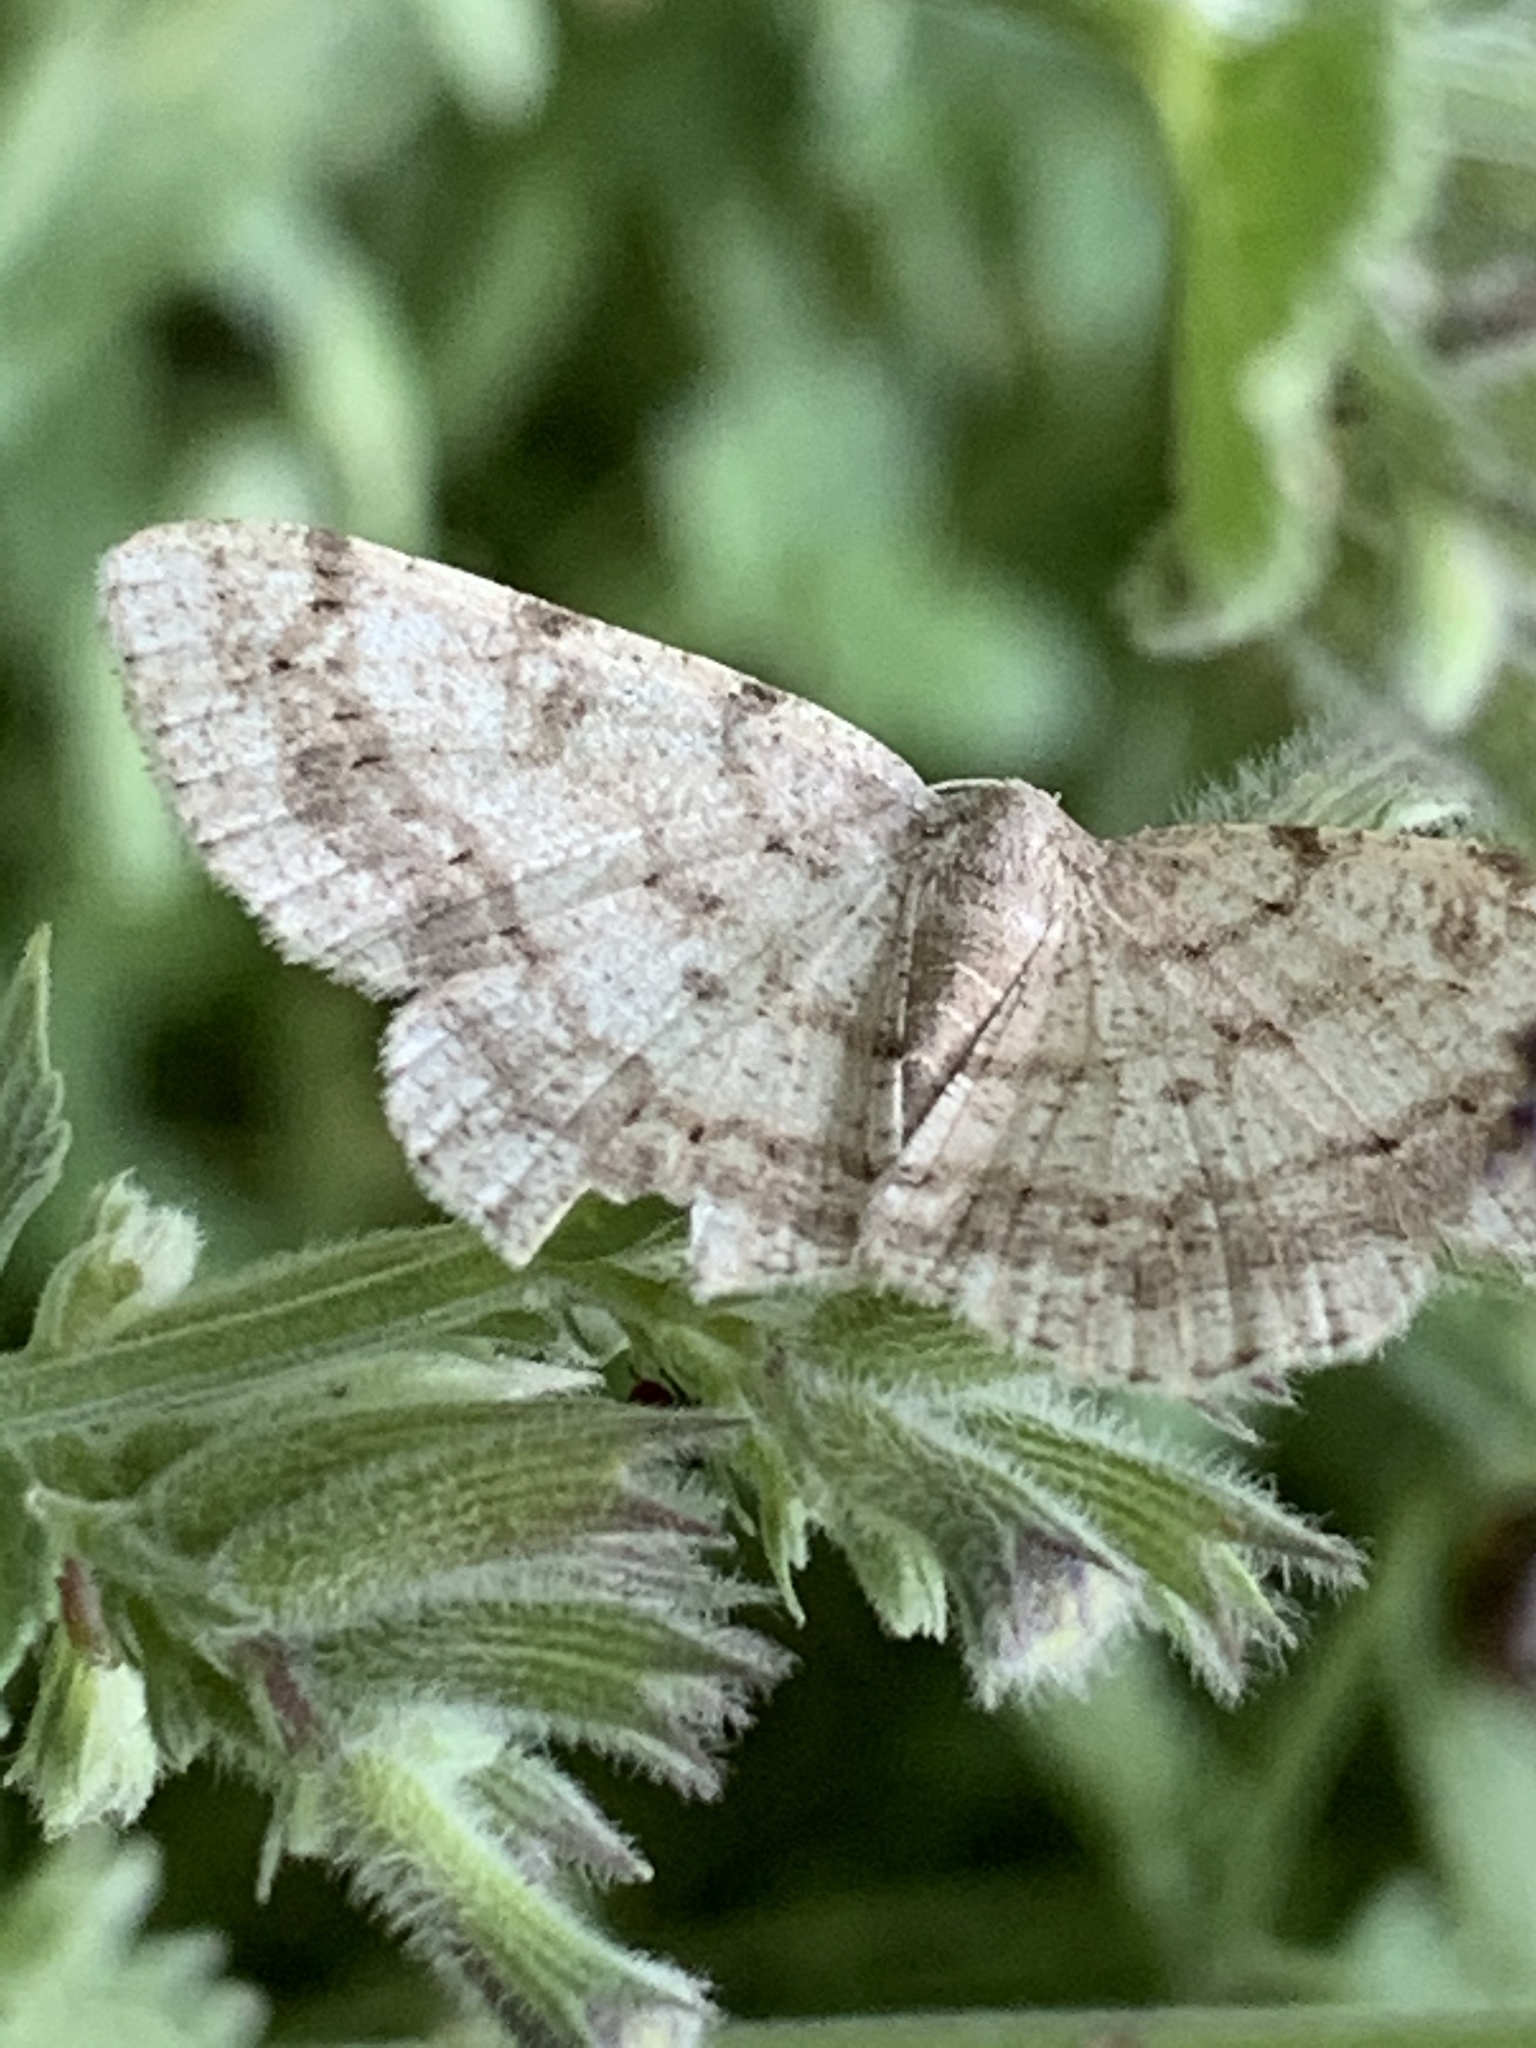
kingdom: Animalia
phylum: Arthropoda
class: Insecta
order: Lepidoptera
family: Geometridae
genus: Digrammia
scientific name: Digrammia ocellinata
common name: Faint-spotted angle
